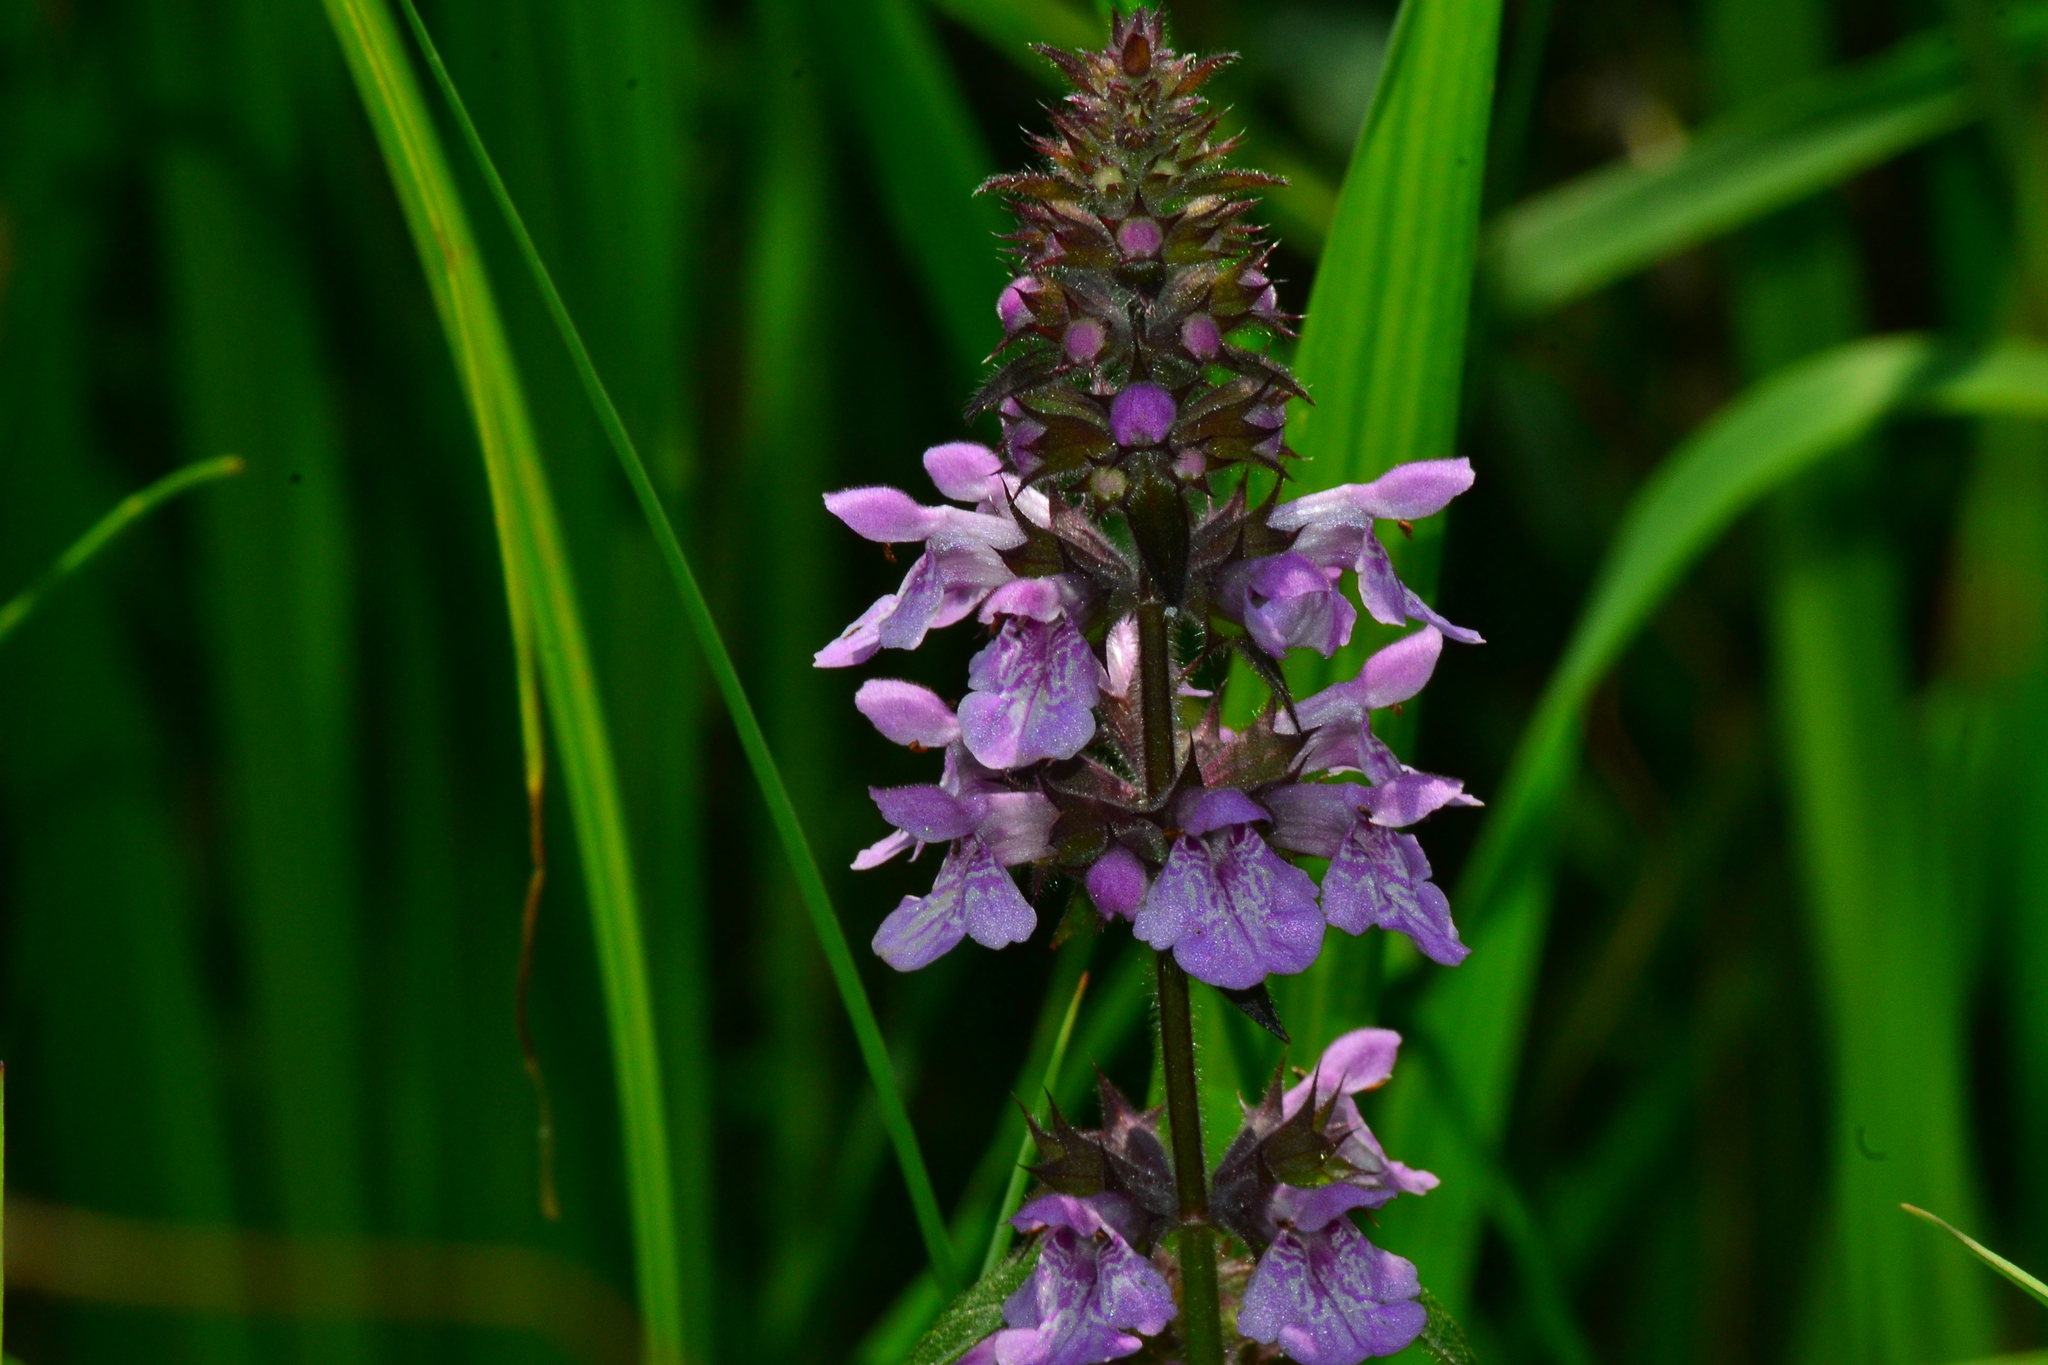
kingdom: Plantae
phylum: Tracheophyta
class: Magnoliopsida
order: Lamiales
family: Lamiaceae
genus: Stachys
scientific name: Stachys palustris
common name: Marsh woundwort
